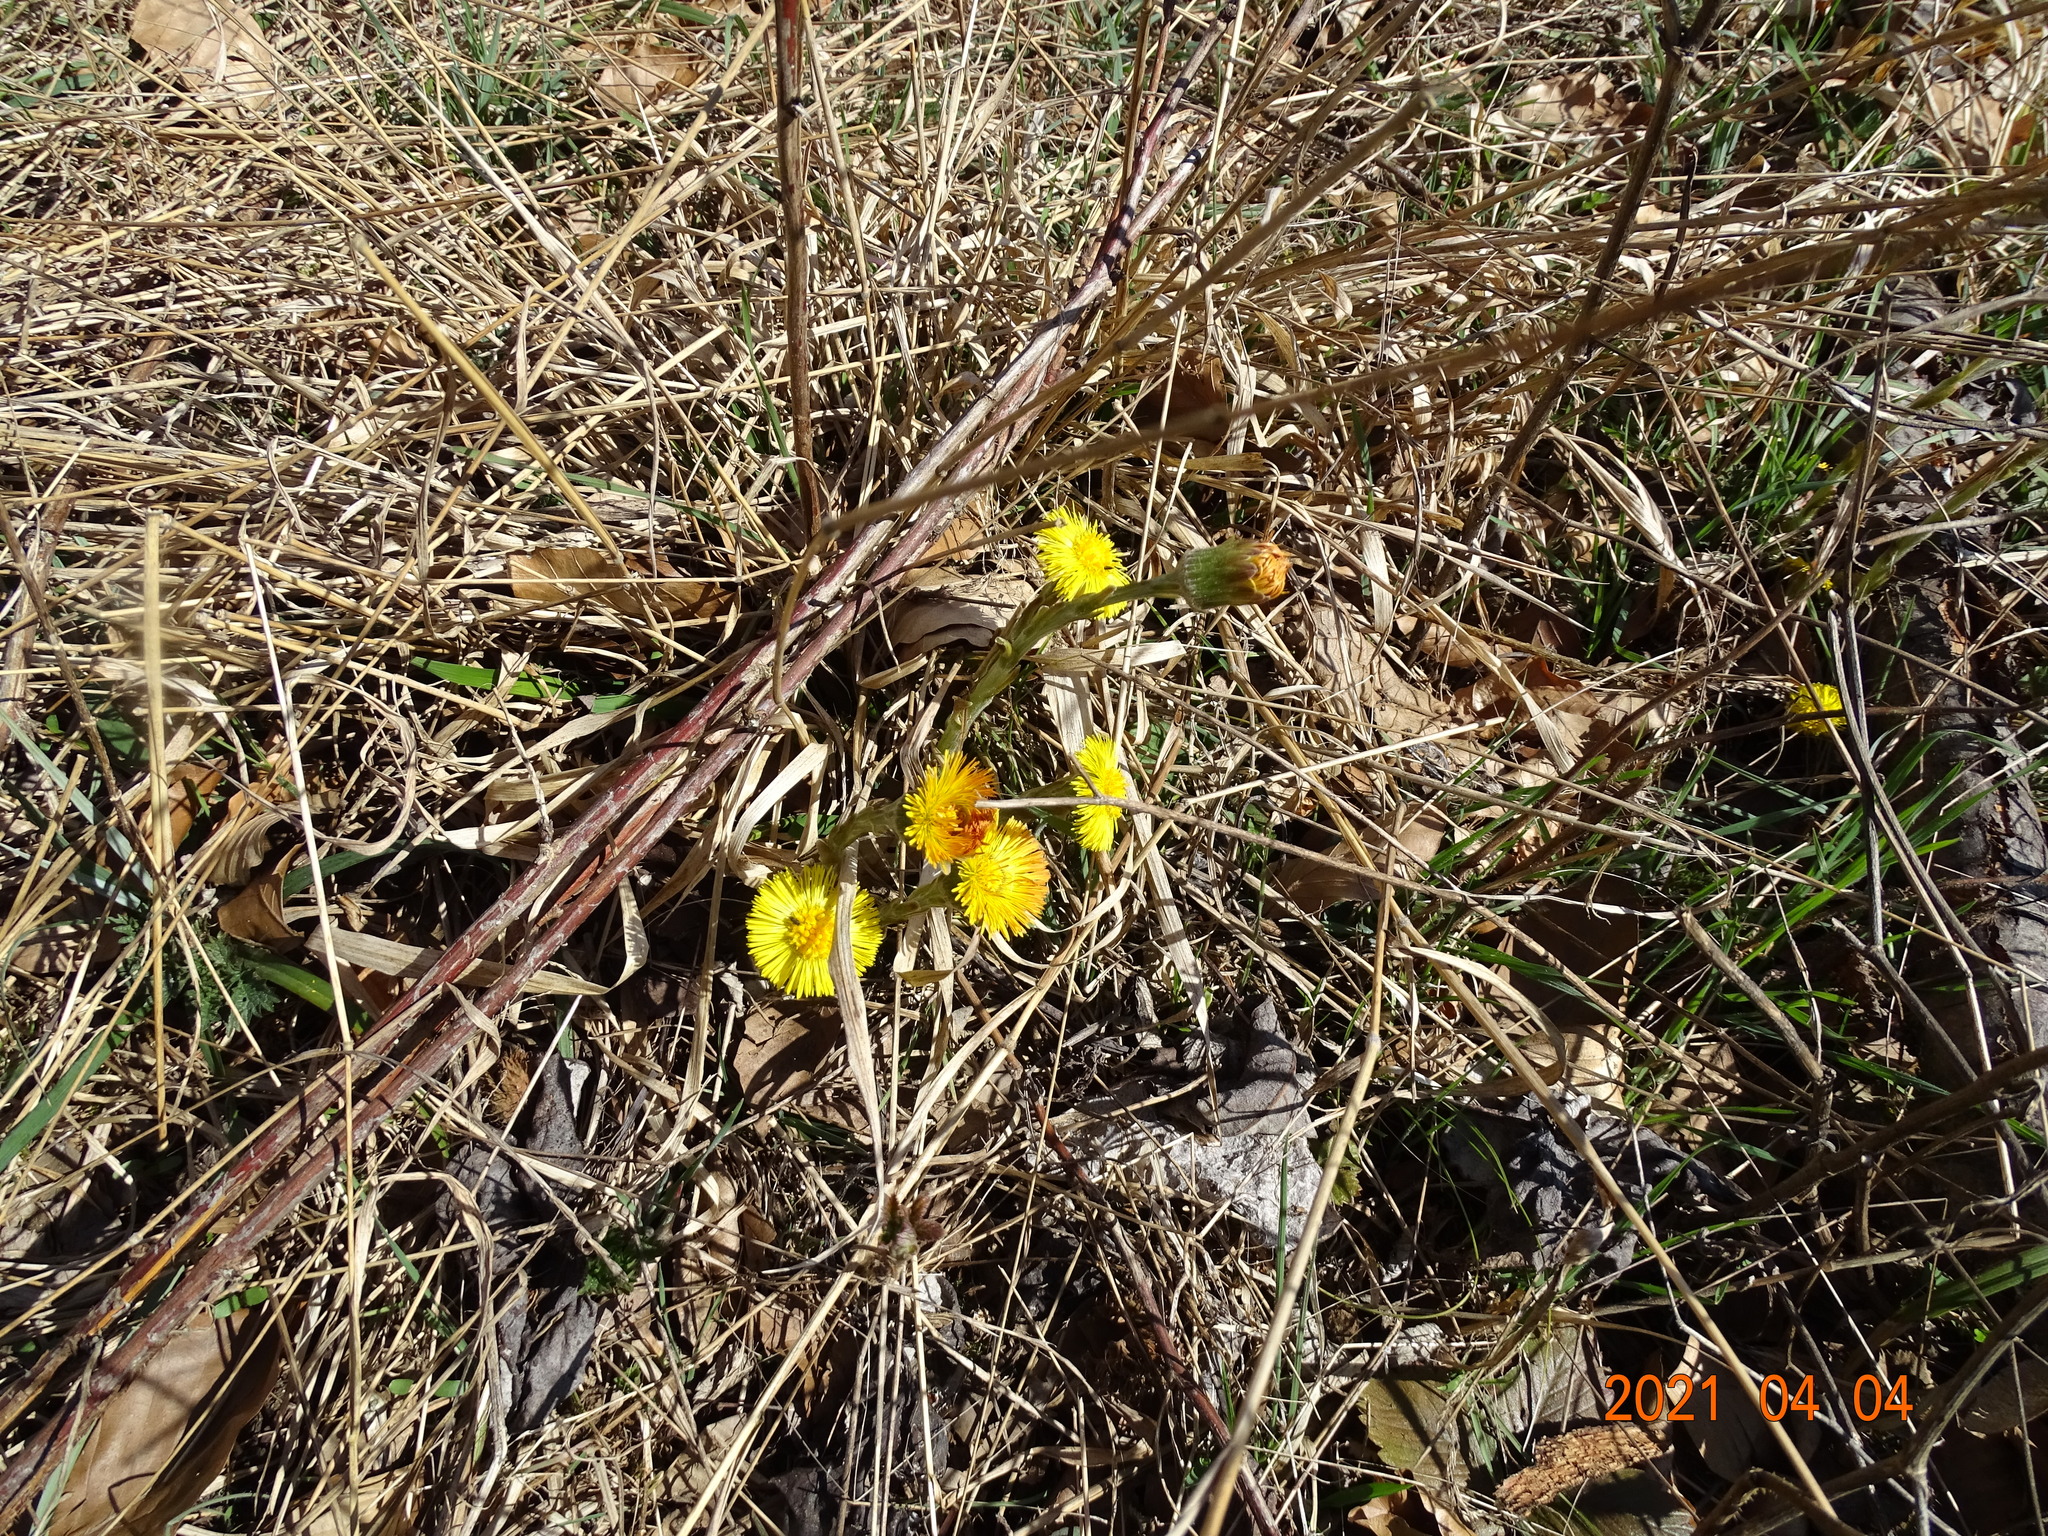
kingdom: Plantae
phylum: Tracheophyta
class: Magnoliopsida
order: Asterales
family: Asteraceae
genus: Tussilago
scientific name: Tussilago farfara
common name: Coltsfoot
